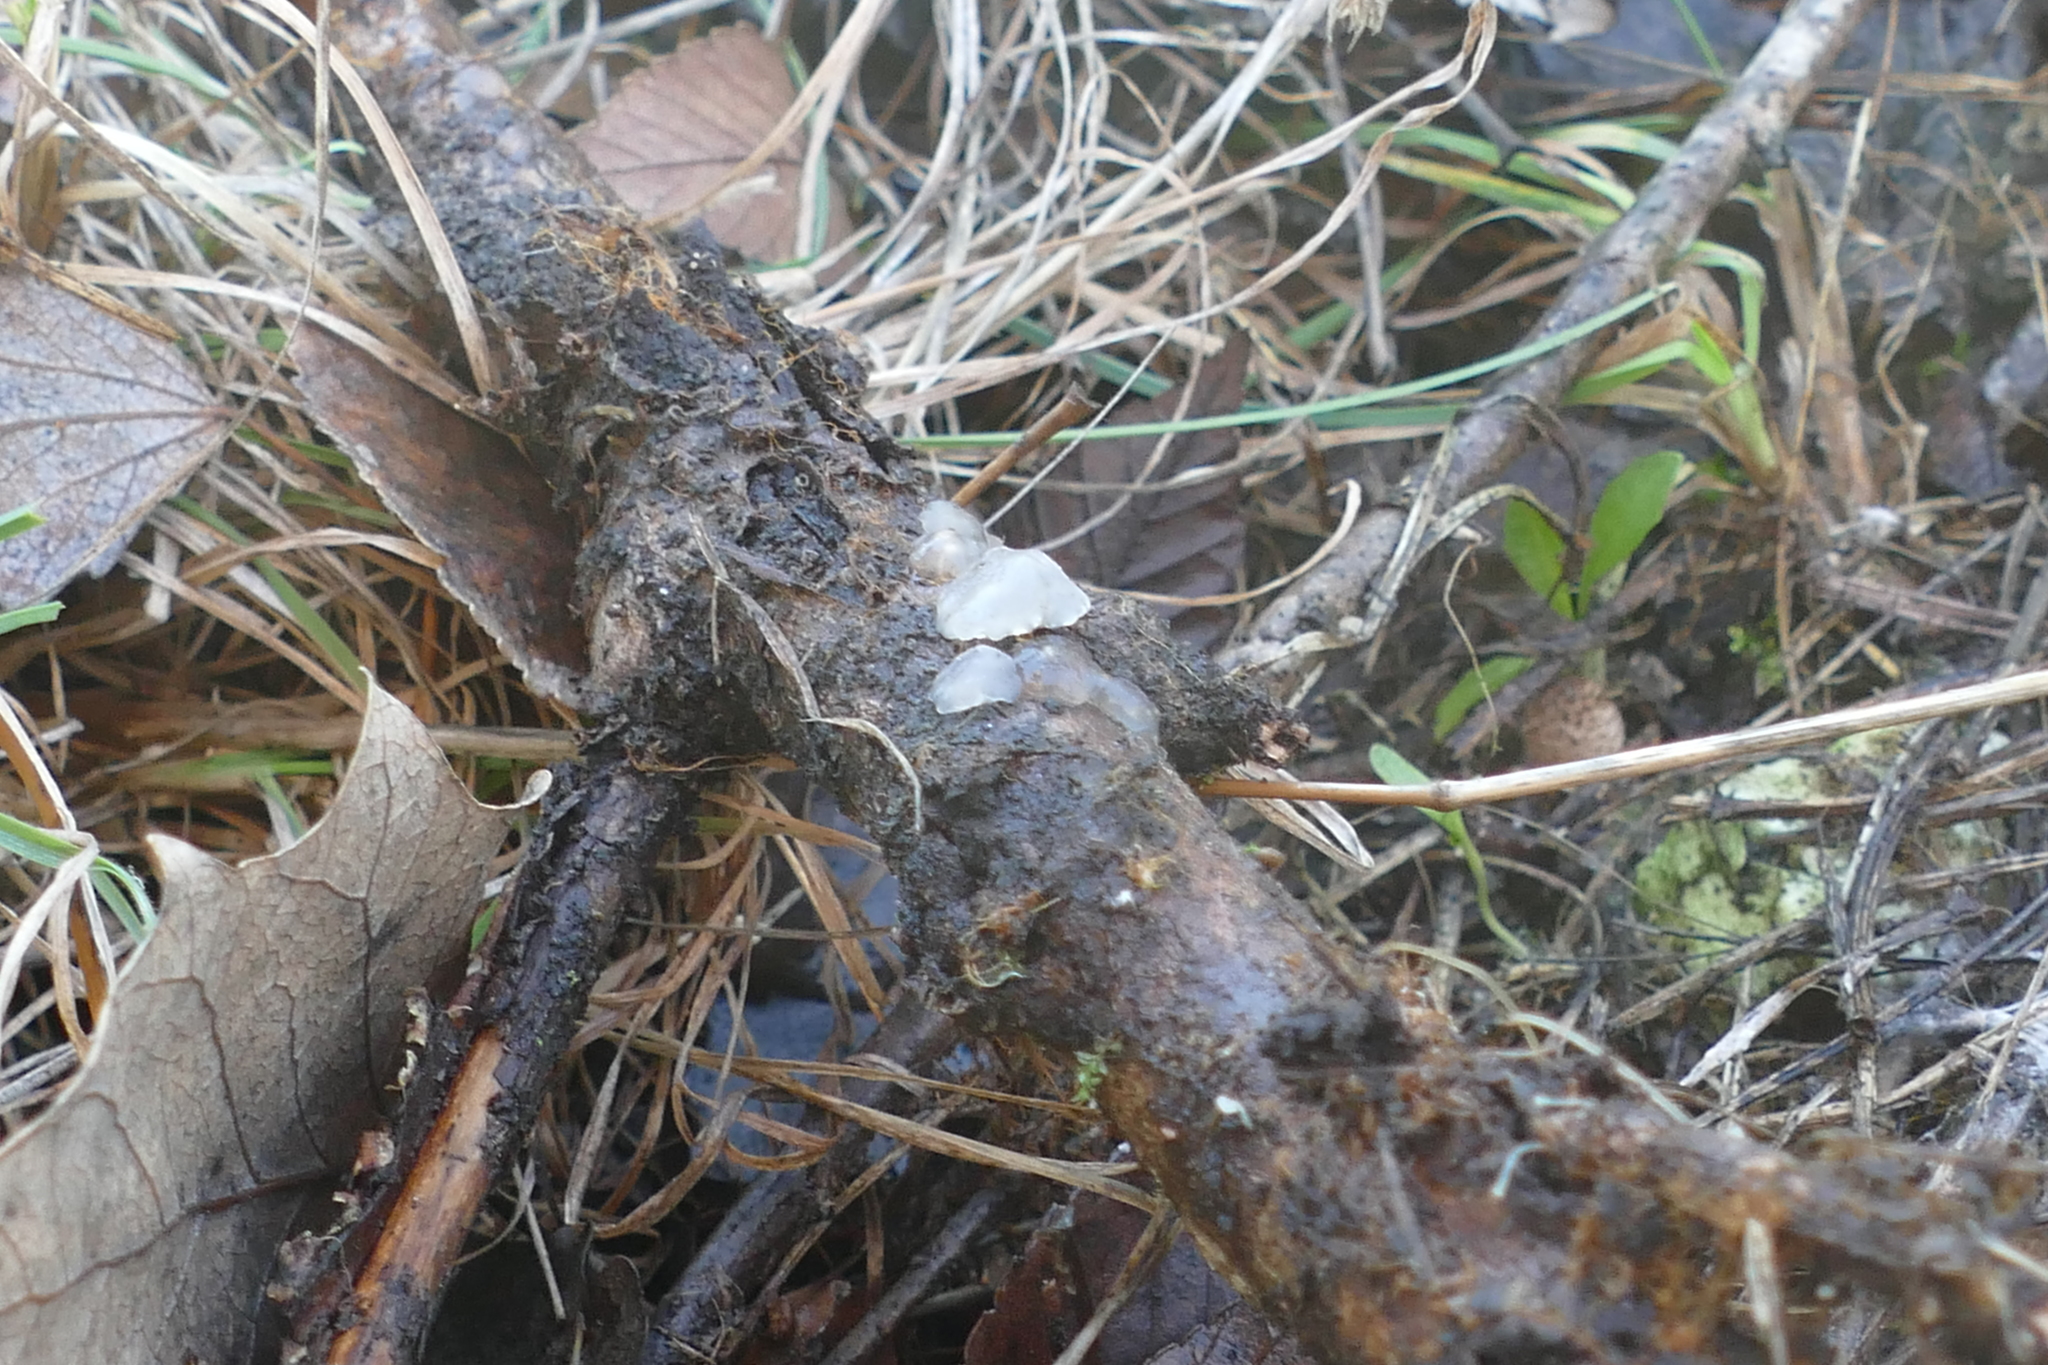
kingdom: Fungi
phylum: Basidiomycota
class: Agaricomycetes
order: Auriculariales
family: Hyaloriaceae
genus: Myxarium
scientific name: Myxarium nucleatum
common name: Crystal brain fungus
